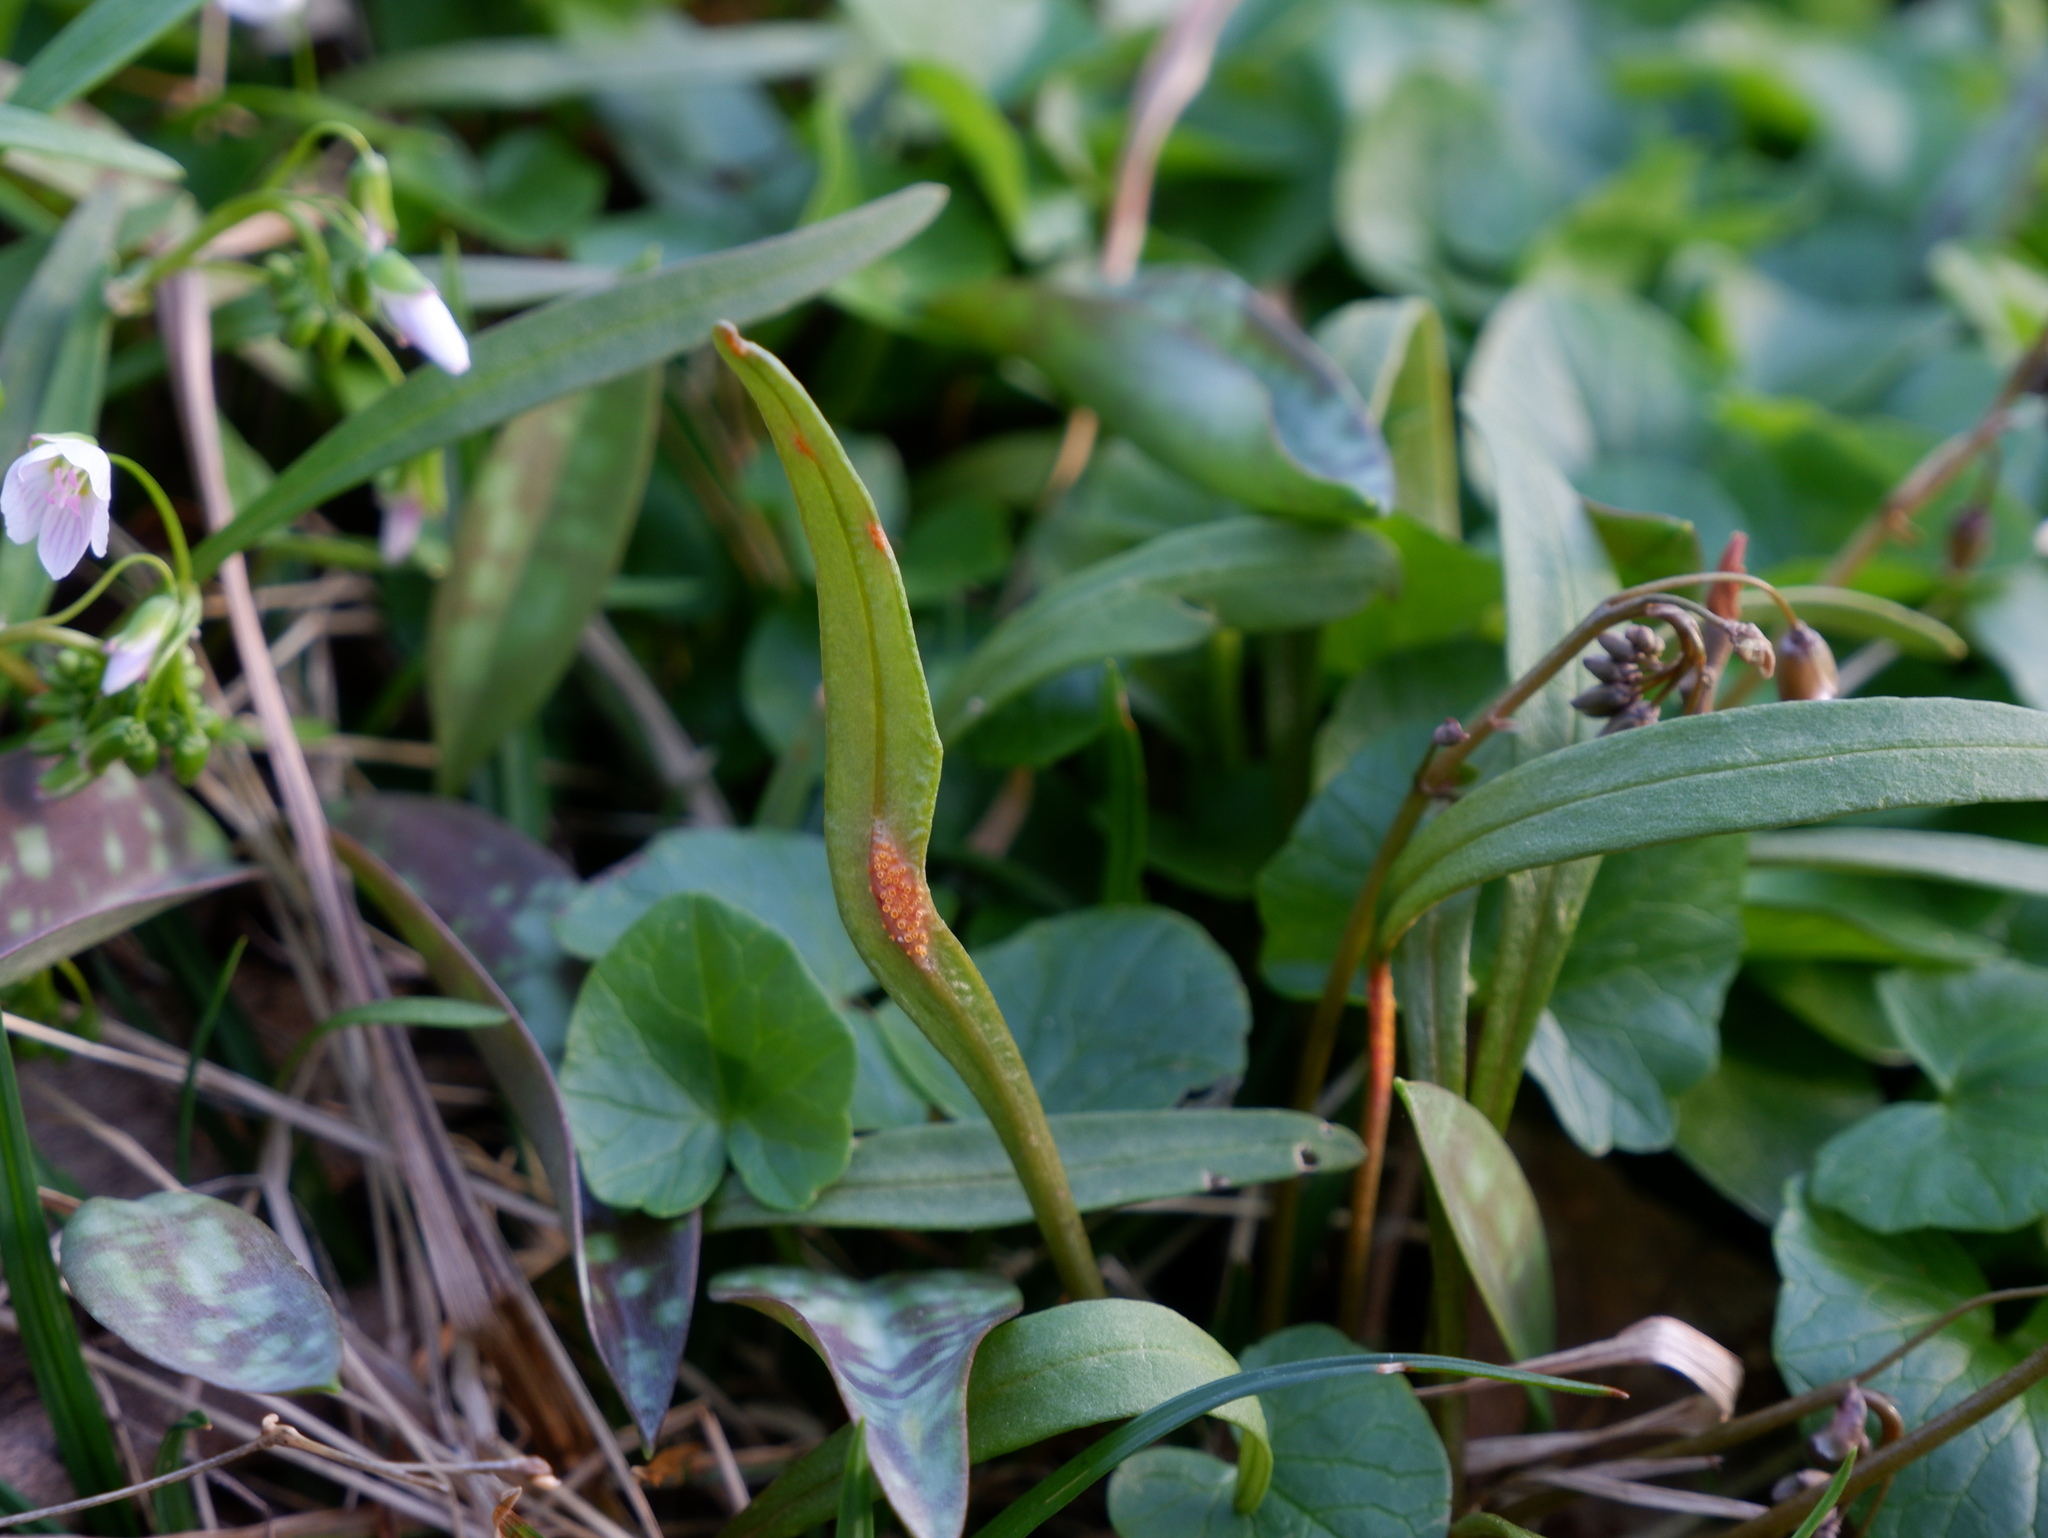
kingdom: Fungi
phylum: Basidiomycota
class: Pucciniomycetes
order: Pucciniales
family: Pucciniaceae
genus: Puccinia
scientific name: Puccinia mariae-wilsoniae
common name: Spring beauty rust
